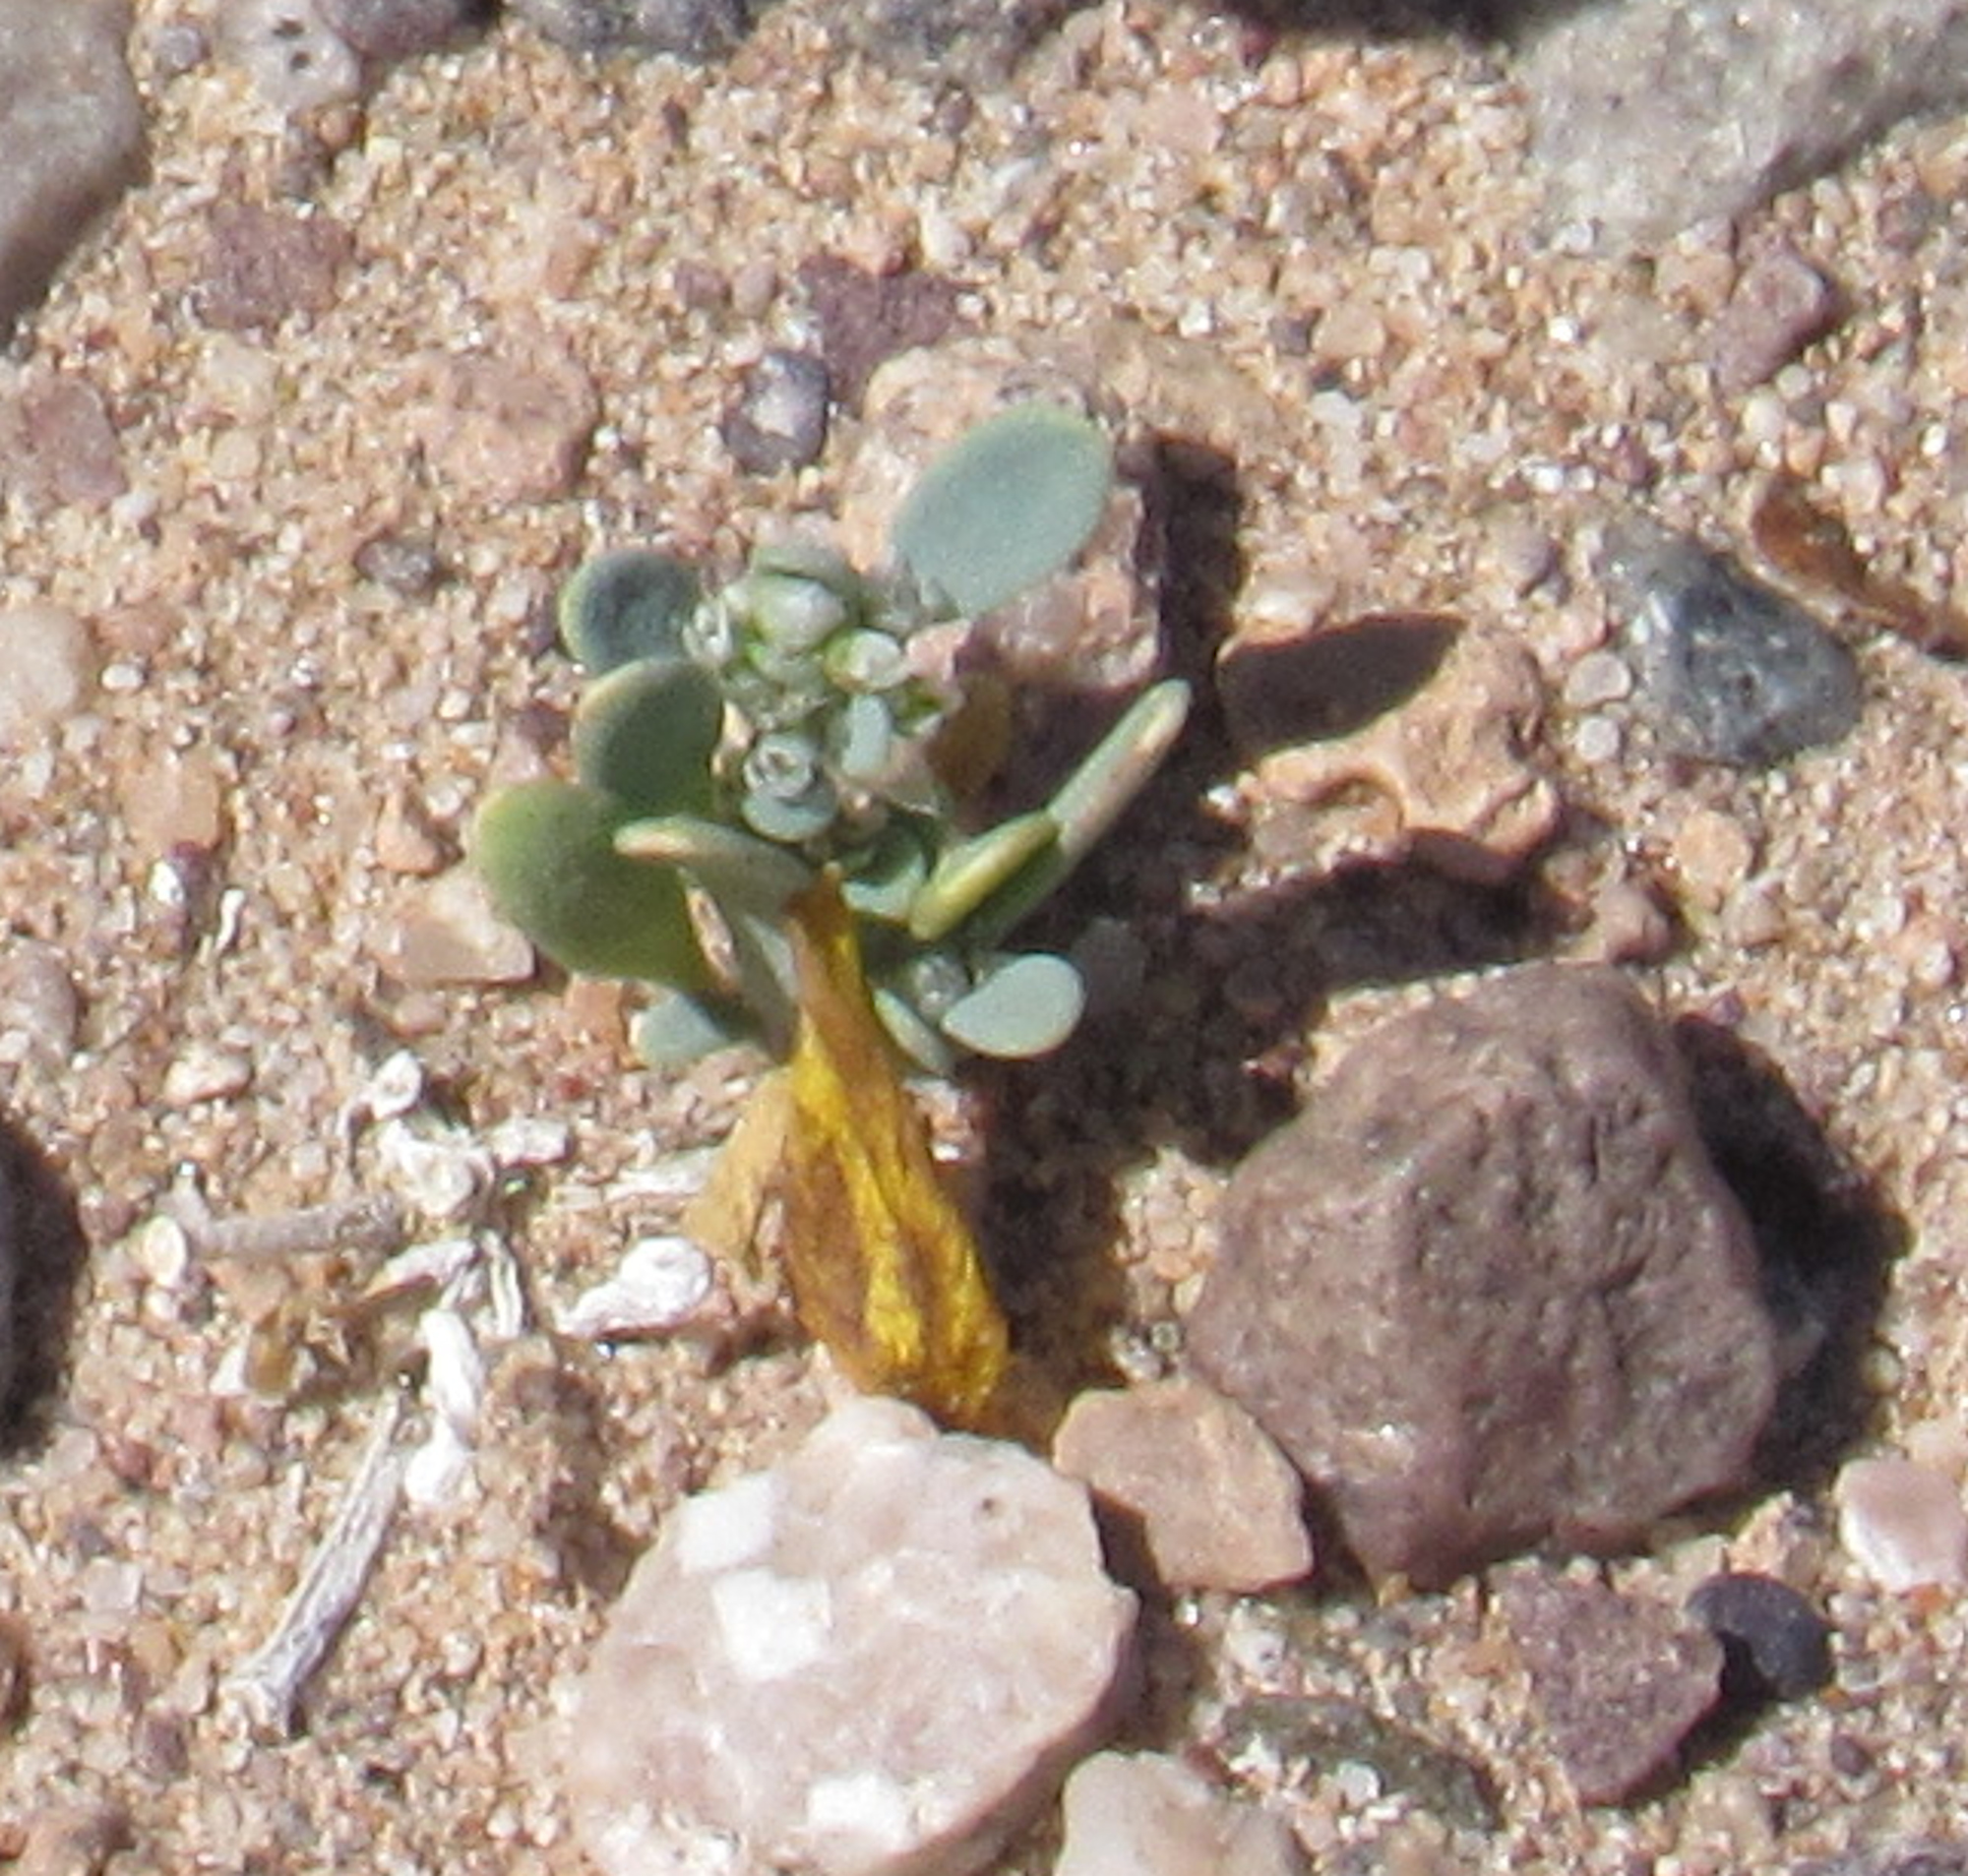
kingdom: Plantae
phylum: Tracheophyta
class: Magnoliopsida
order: Caryophyllales
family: Caryophyllaceae
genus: Achyronychia
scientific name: Achyronychia cooperi
